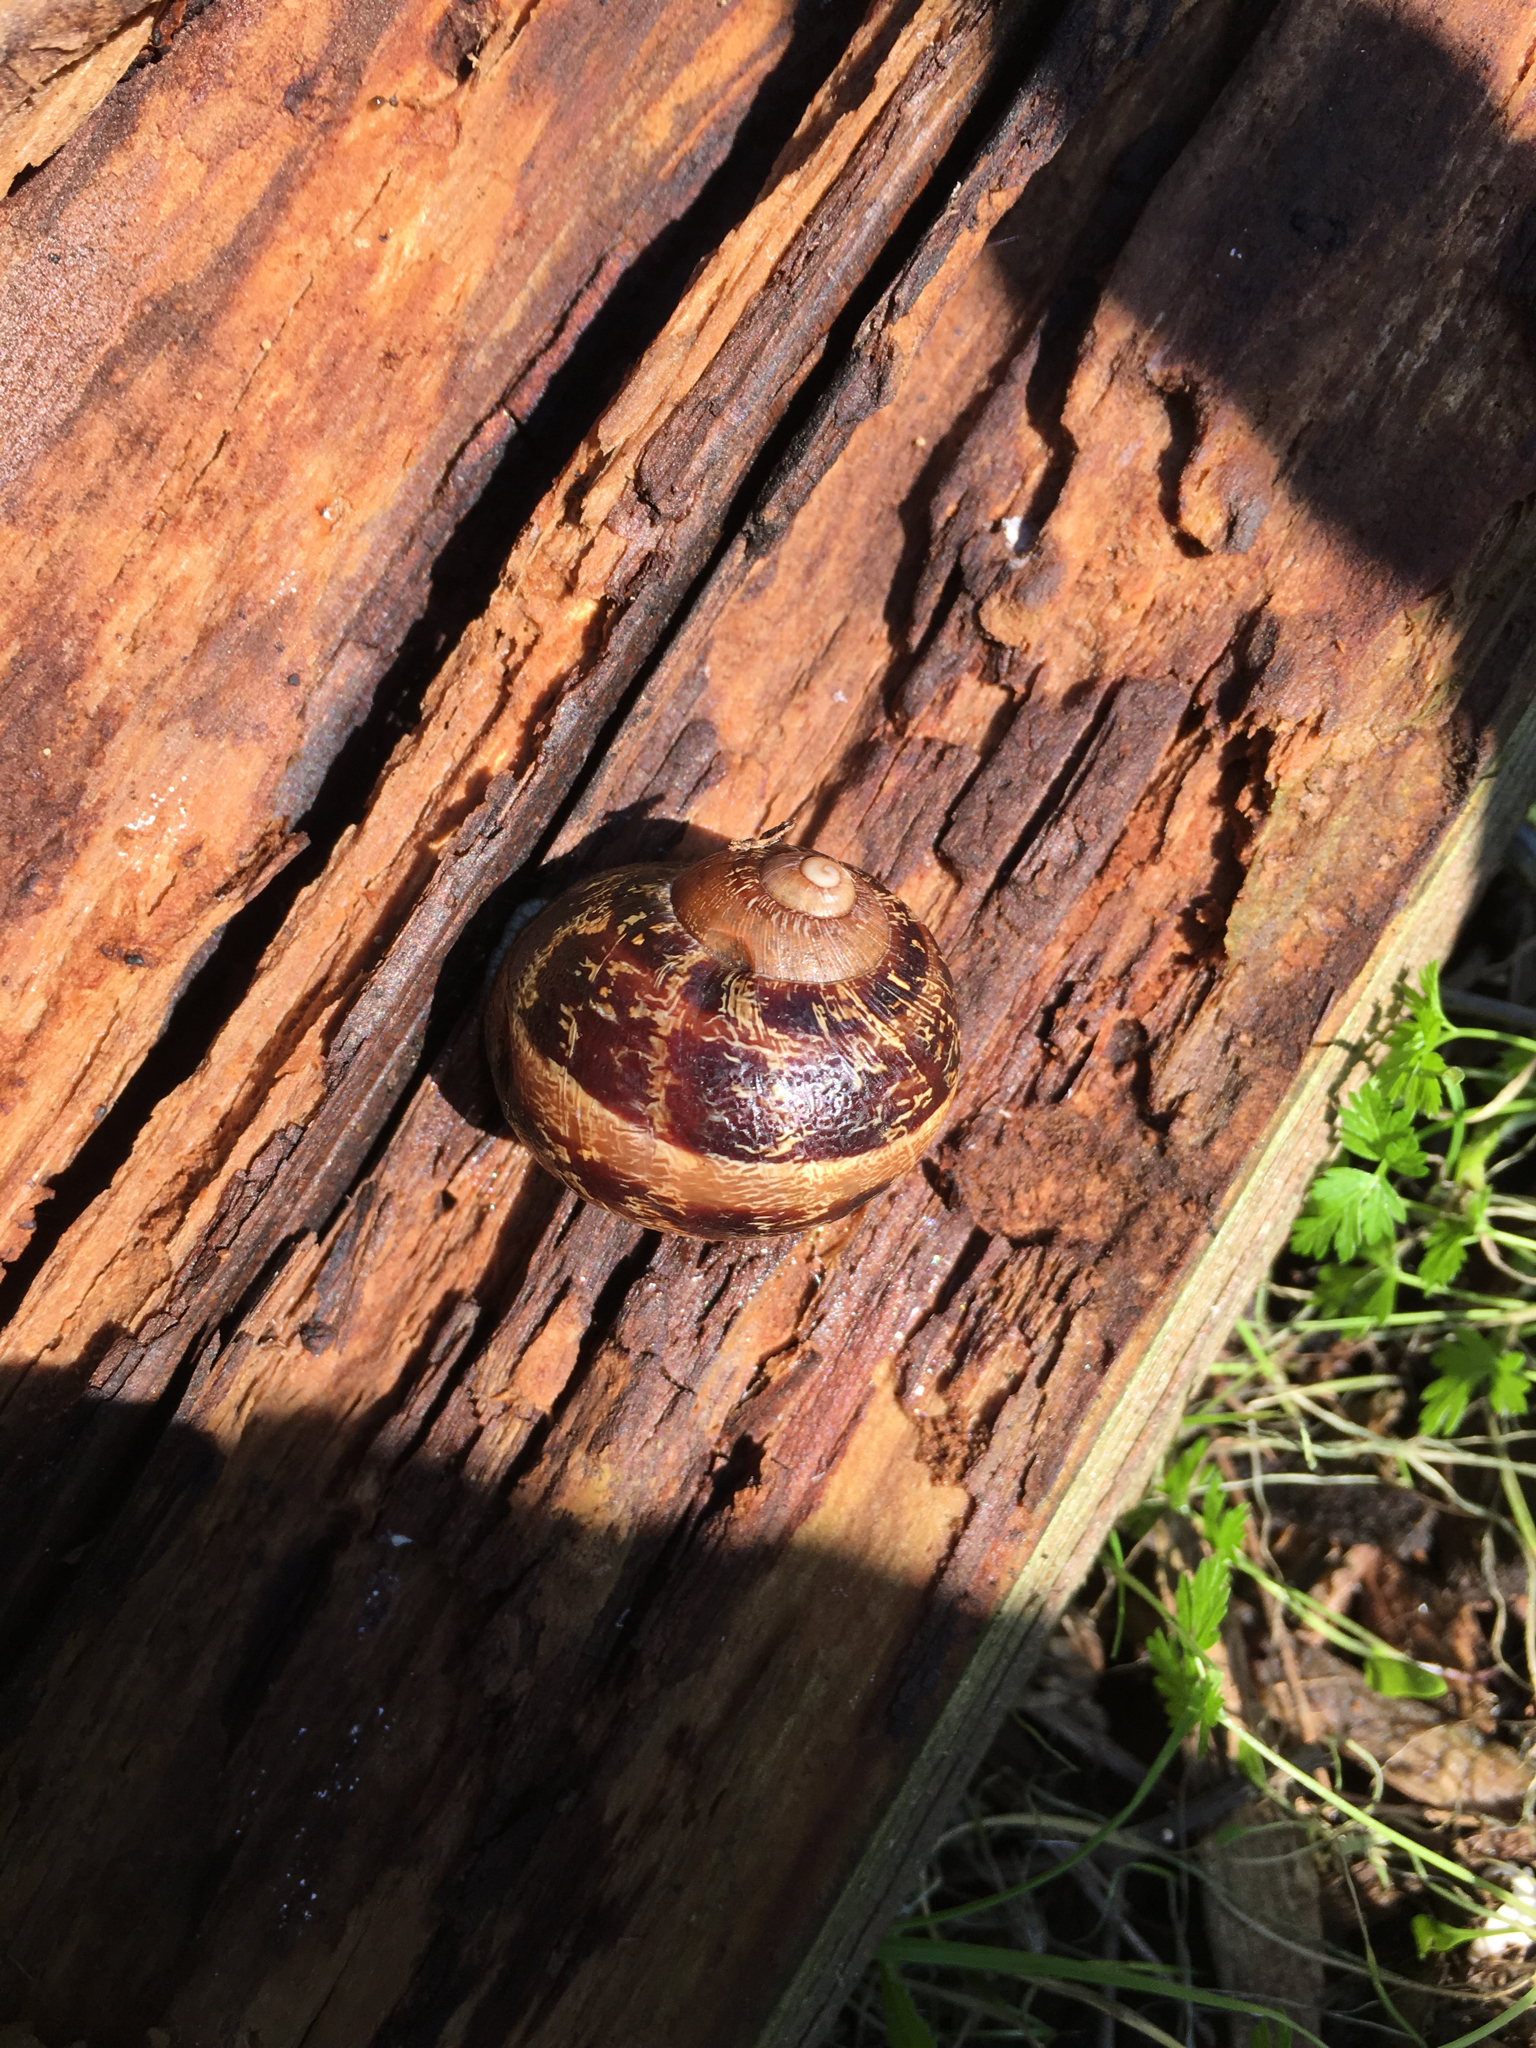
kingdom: Animalia
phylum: Mollusca
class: Gastropoda
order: Stylommatophora
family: Helicidae
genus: Cornu
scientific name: Cornu aspersum
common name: Brown garden snail
